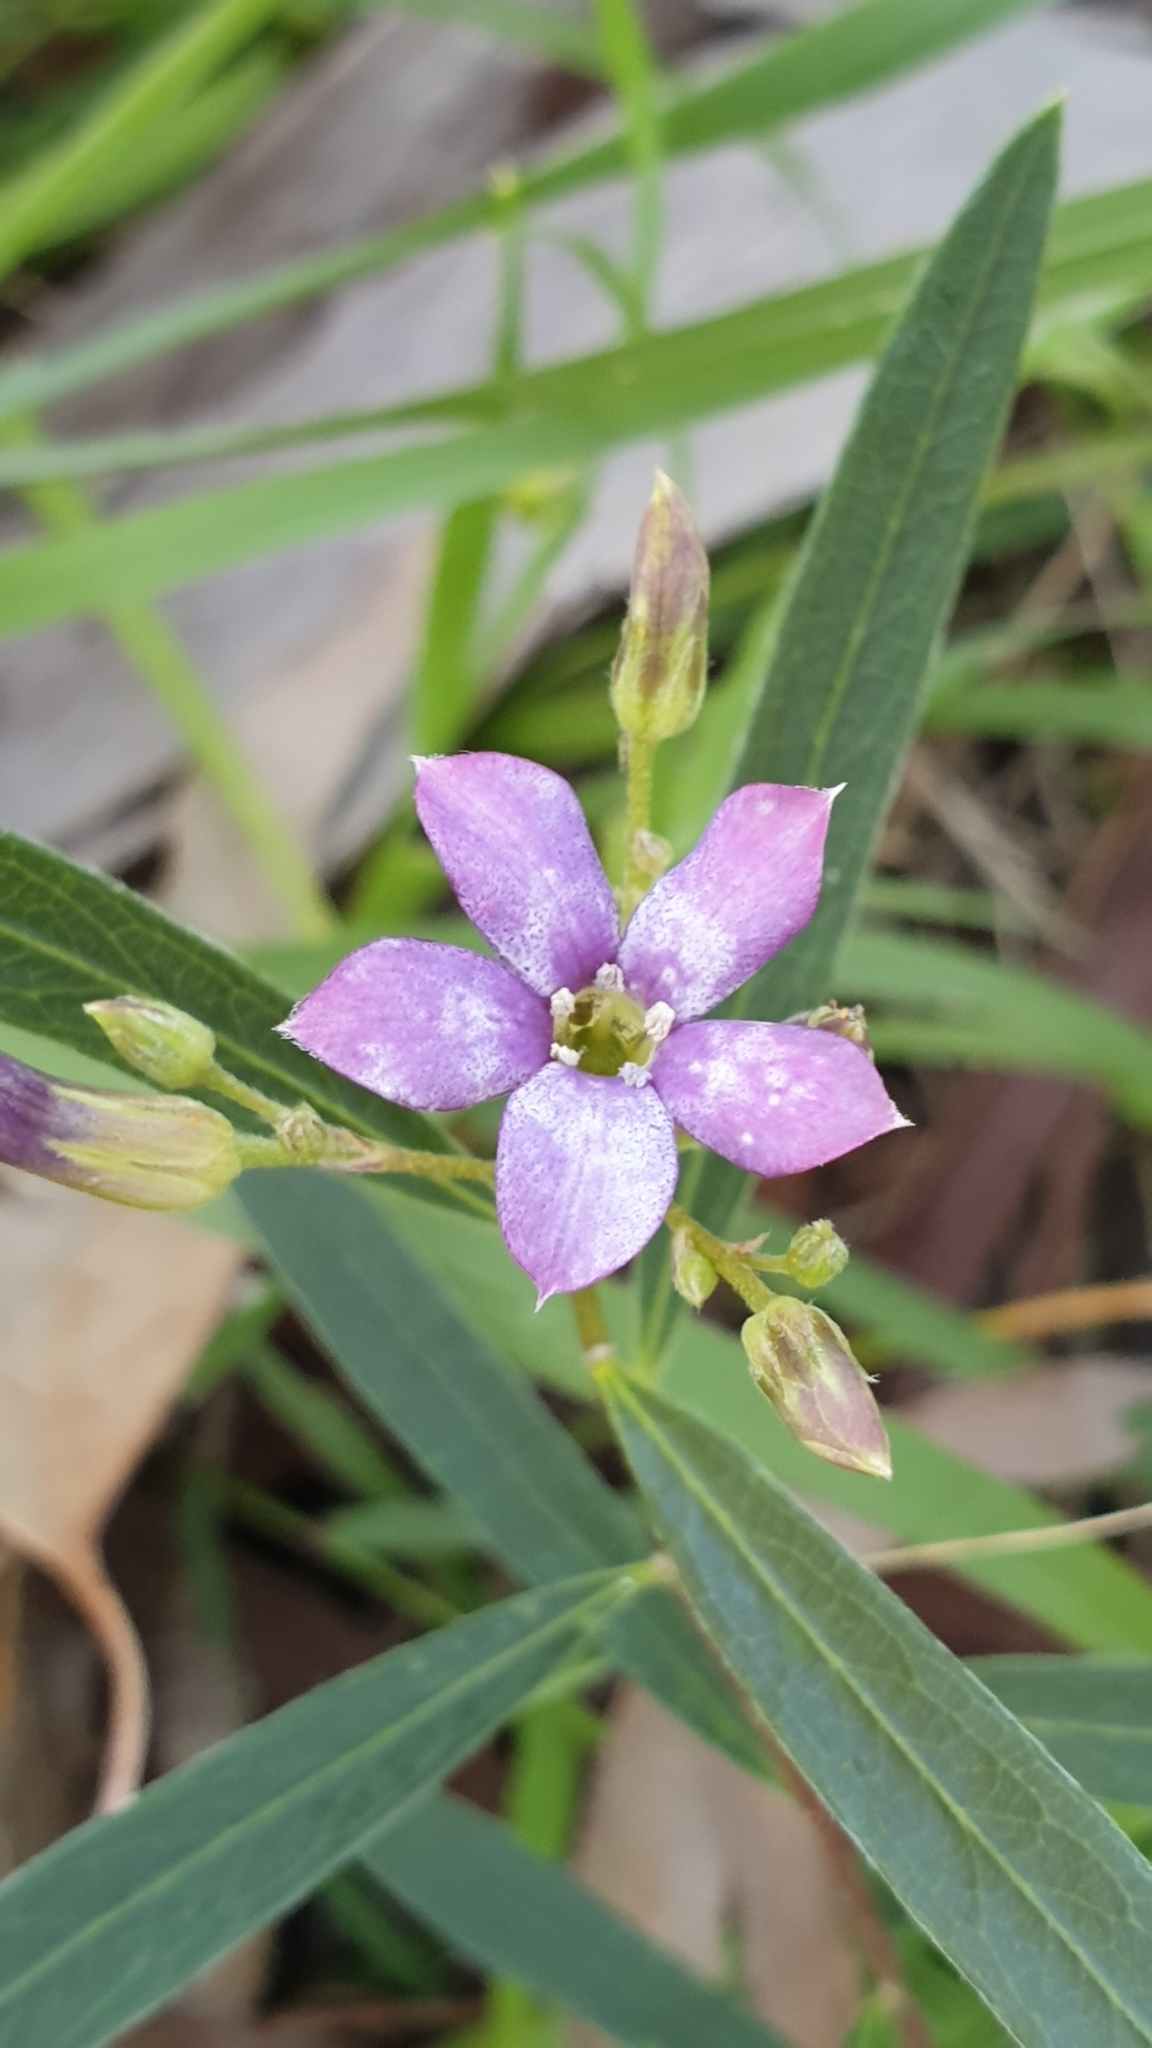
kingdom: Plantae
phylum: Tracheophyta
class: Magnoliopsida
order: Apiales
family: Pittosporaceae
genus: Billardiera
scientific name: Billardiera cymosa
